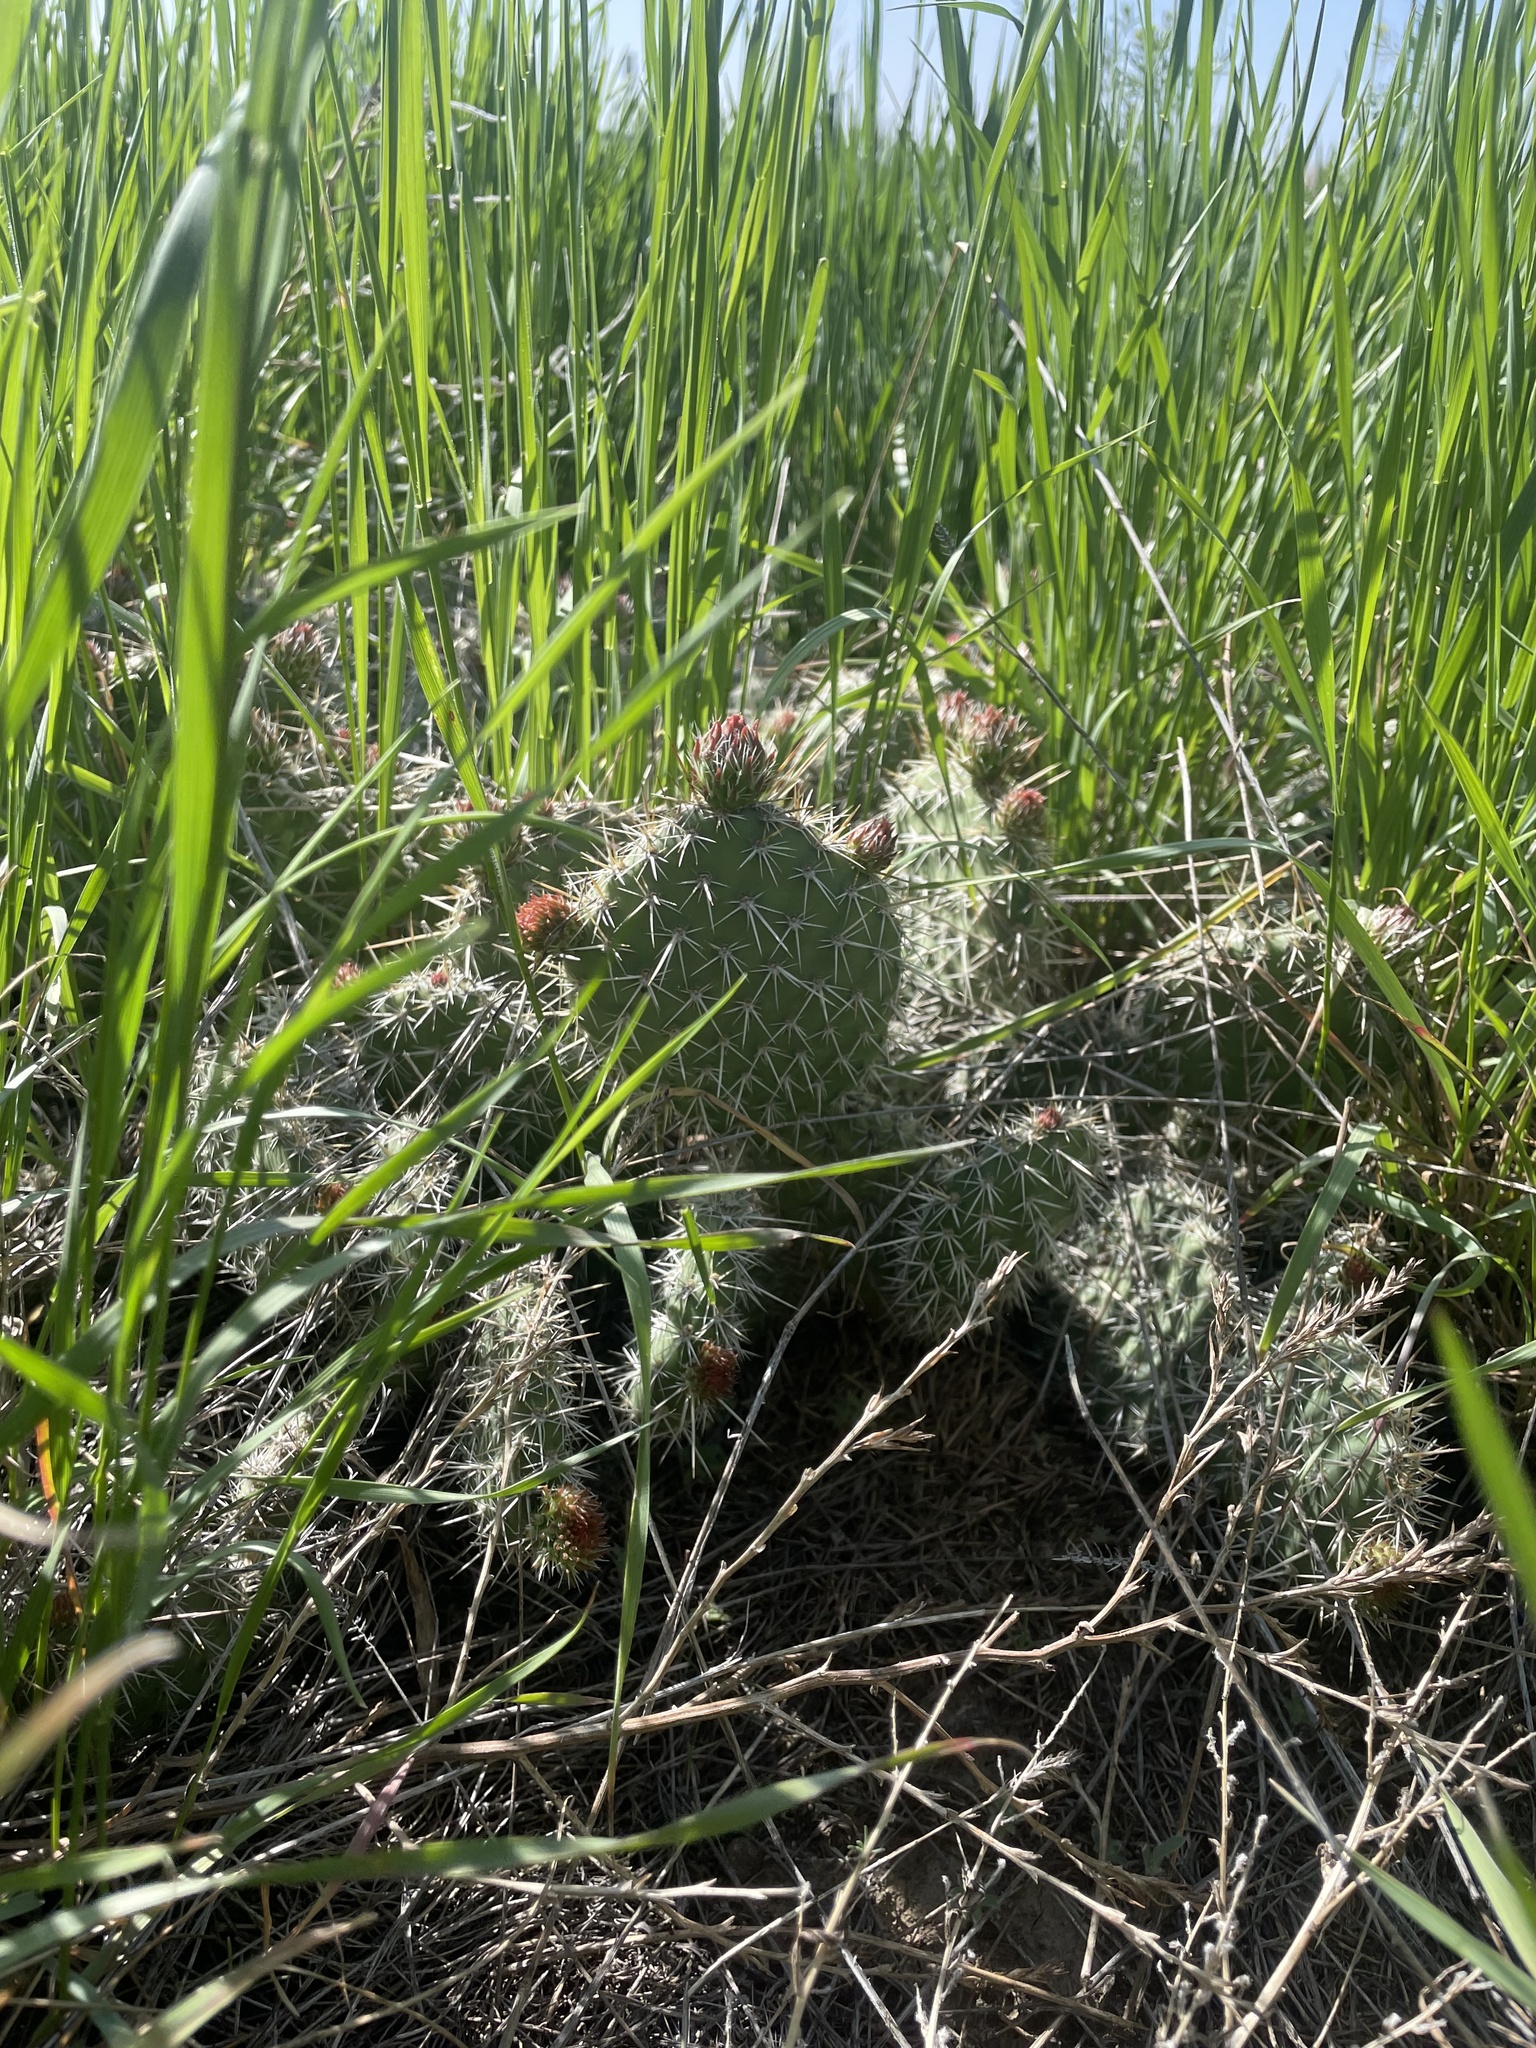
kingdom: Plantae
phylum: Tracheophyta
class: Magnoliopsida
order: Caryophyllales
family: Cactaceae
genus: Opuntia
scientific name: Opuntia polyacantha
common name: Plains prickly-pear
